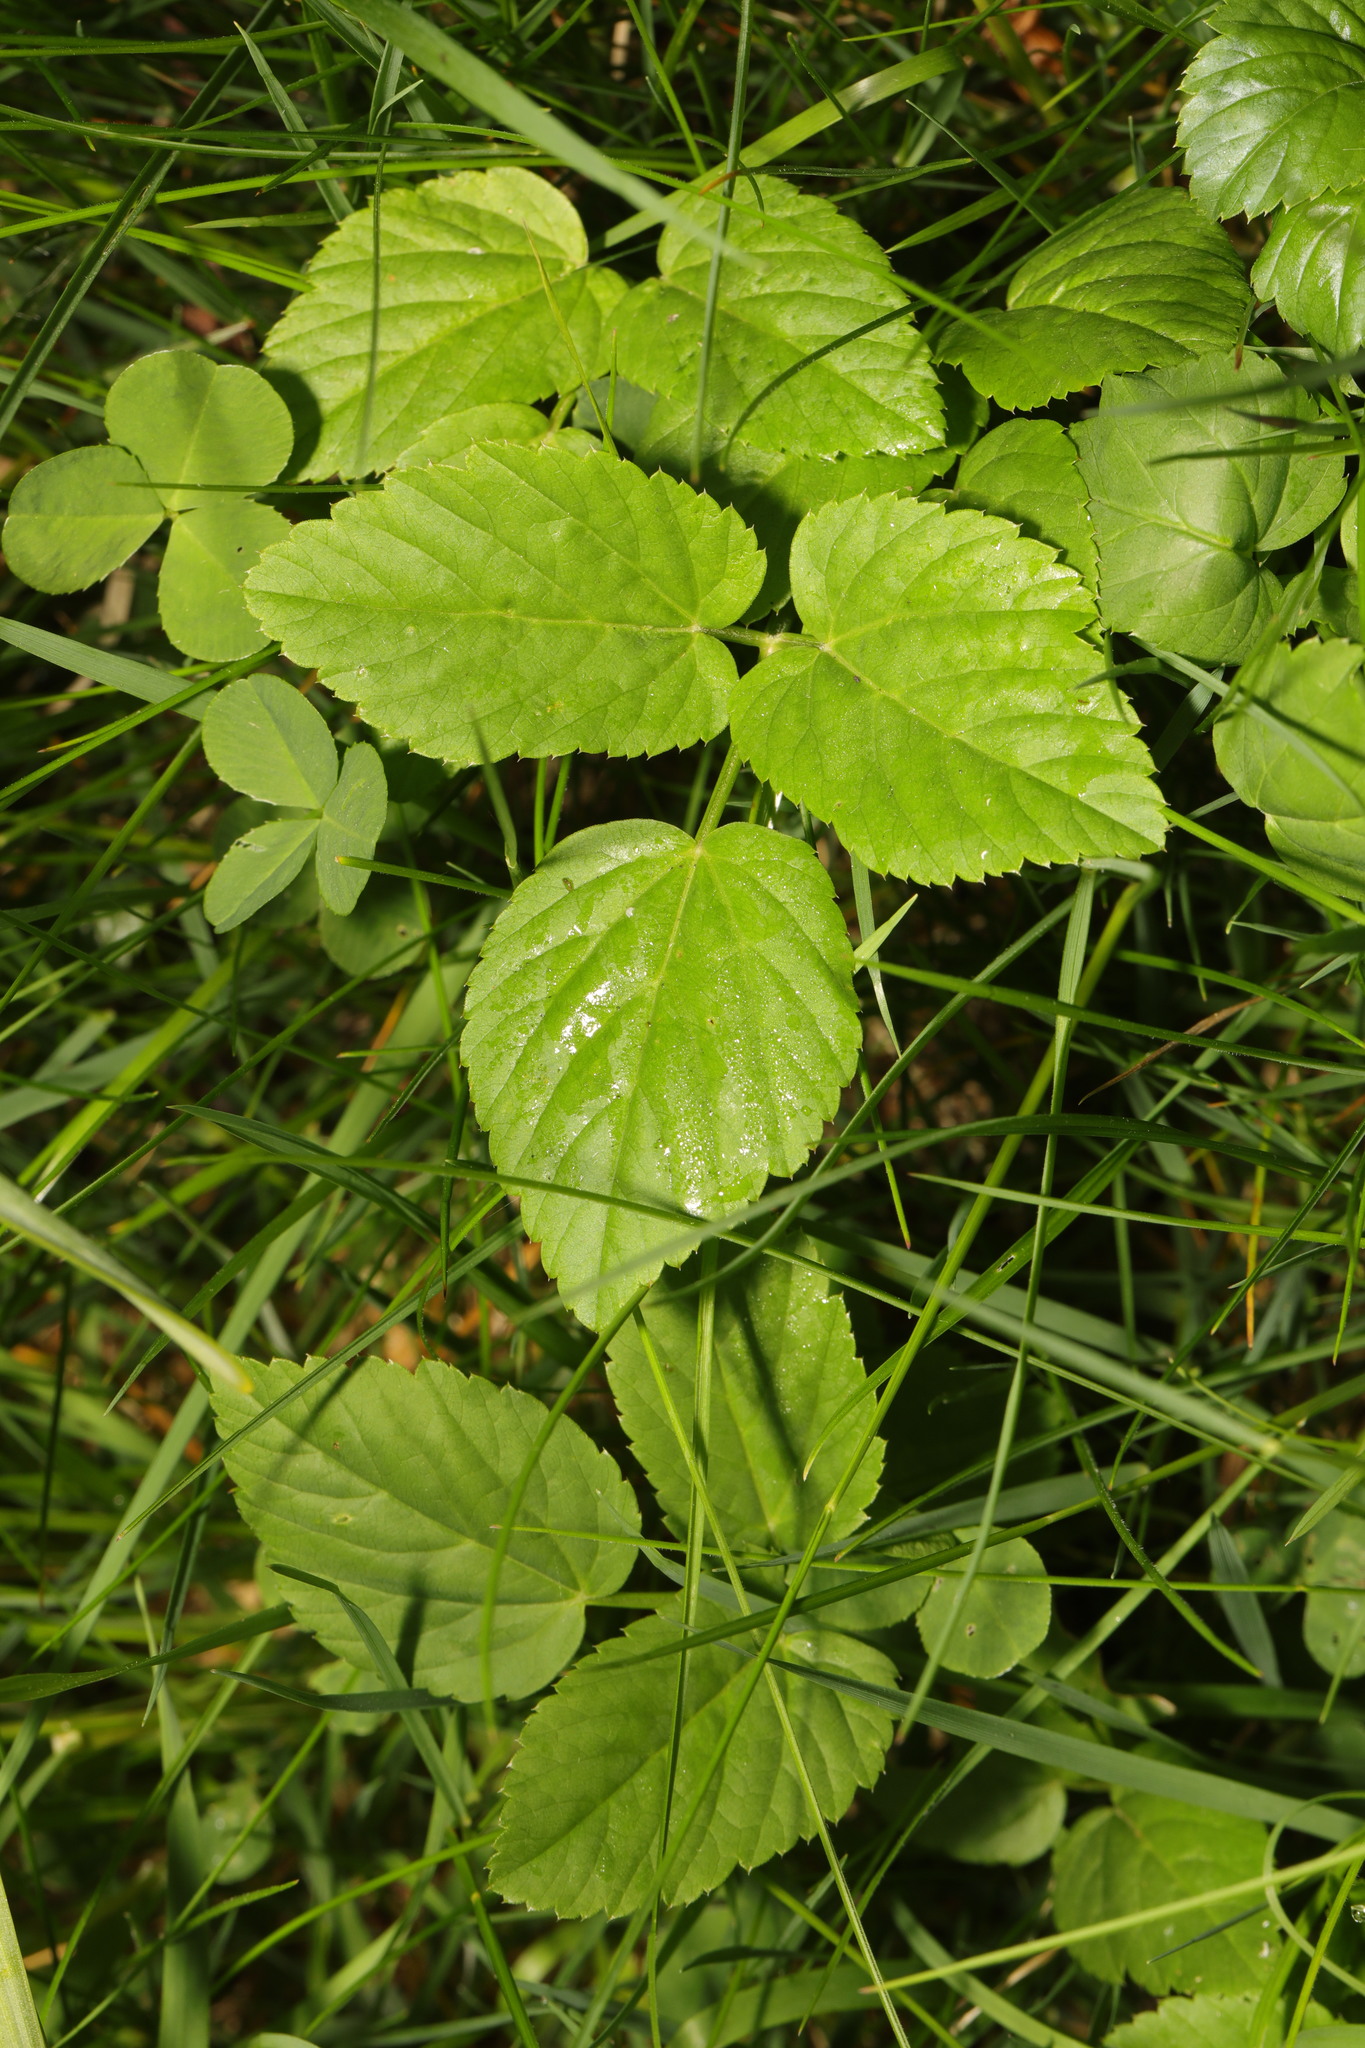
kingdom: Plantae
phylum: Tracheophyta
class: Magnoliopsida
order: Apiales
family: Apiaceae
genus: Aegopodium
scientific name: Aegopodium podagraria
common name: Ground-elder
